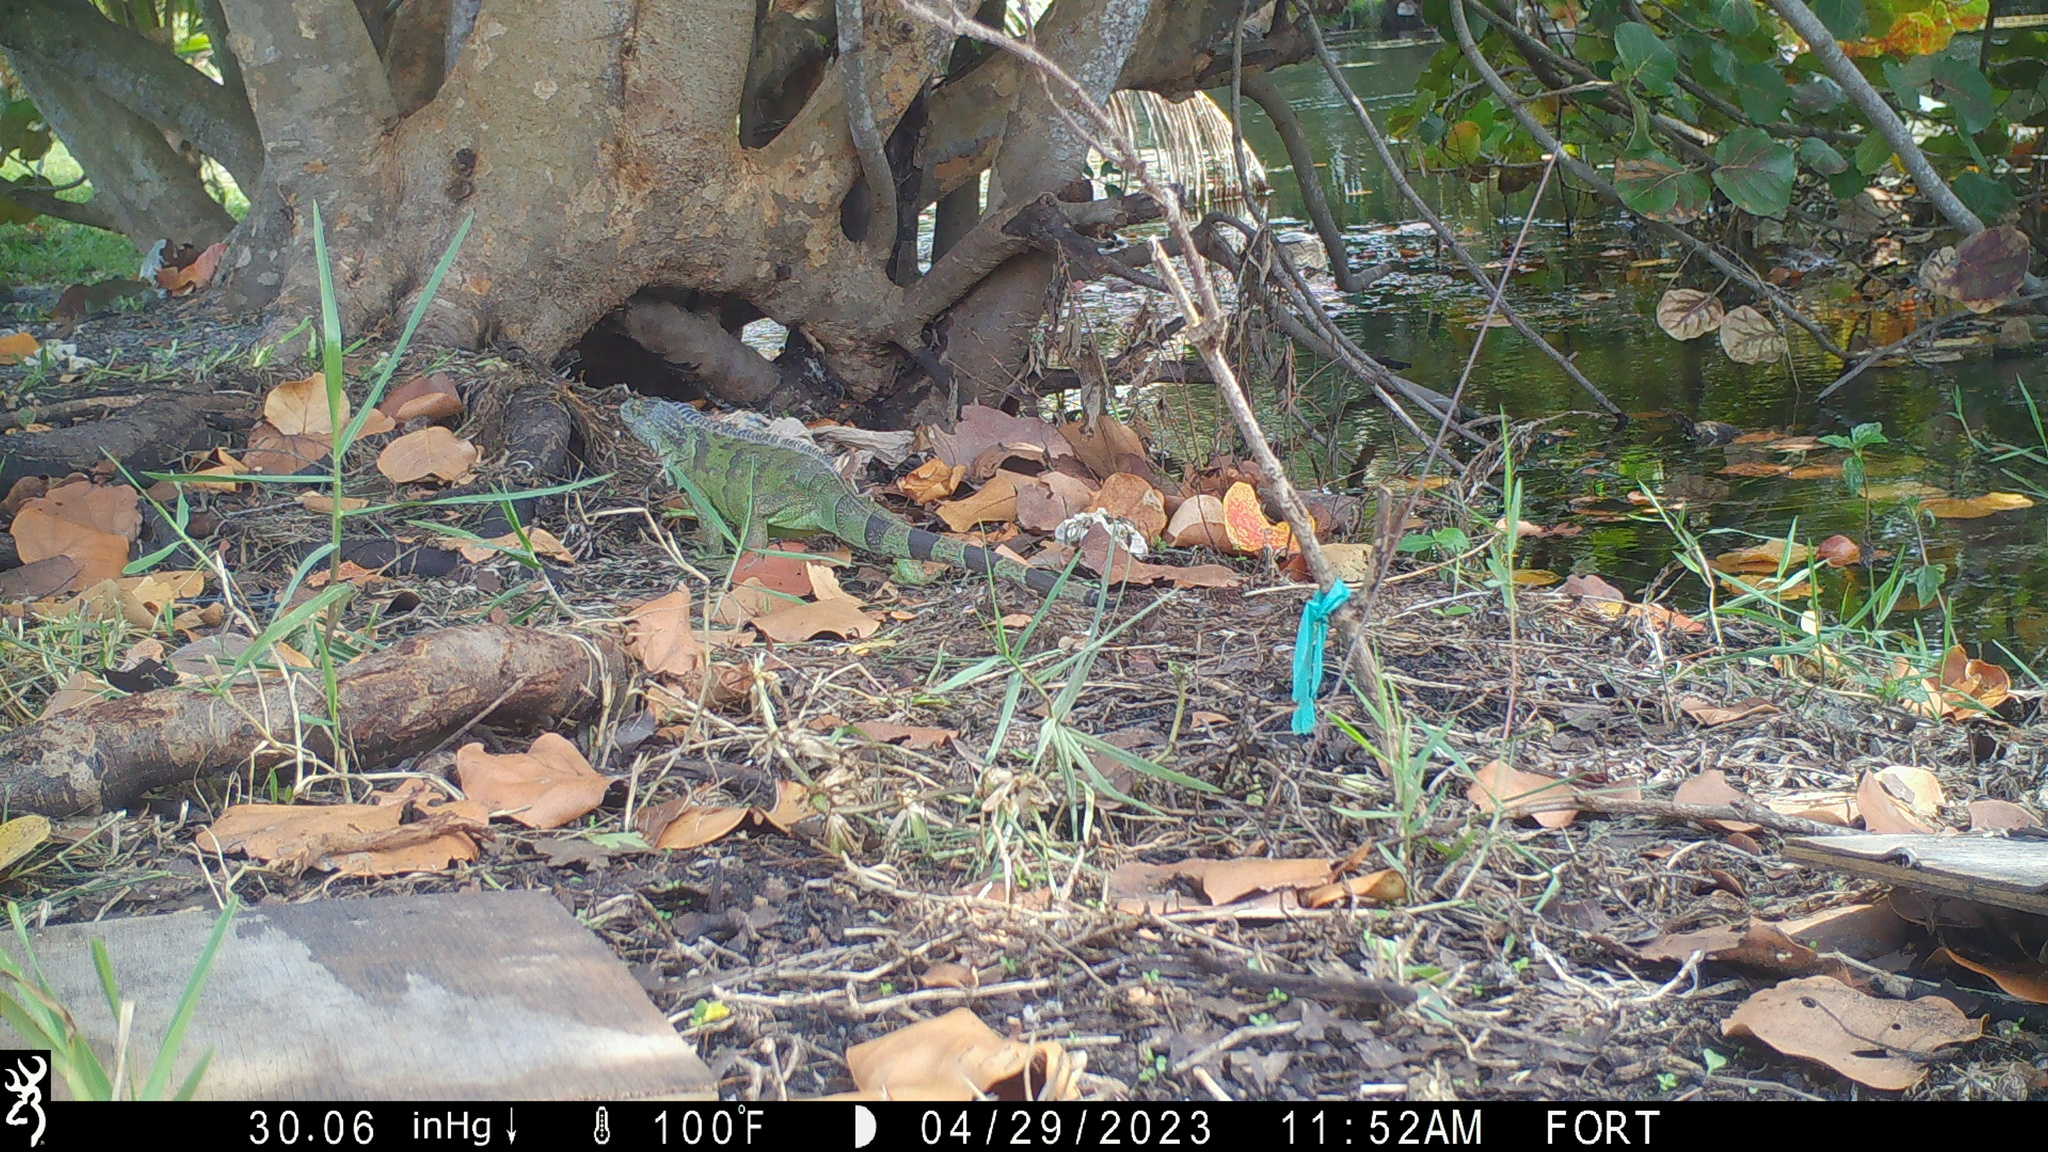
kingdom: Animalia
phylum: Chordata
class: Squamata
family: Iguanidae
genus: Iguana
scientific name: Iguana iguana
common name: Green iguana
